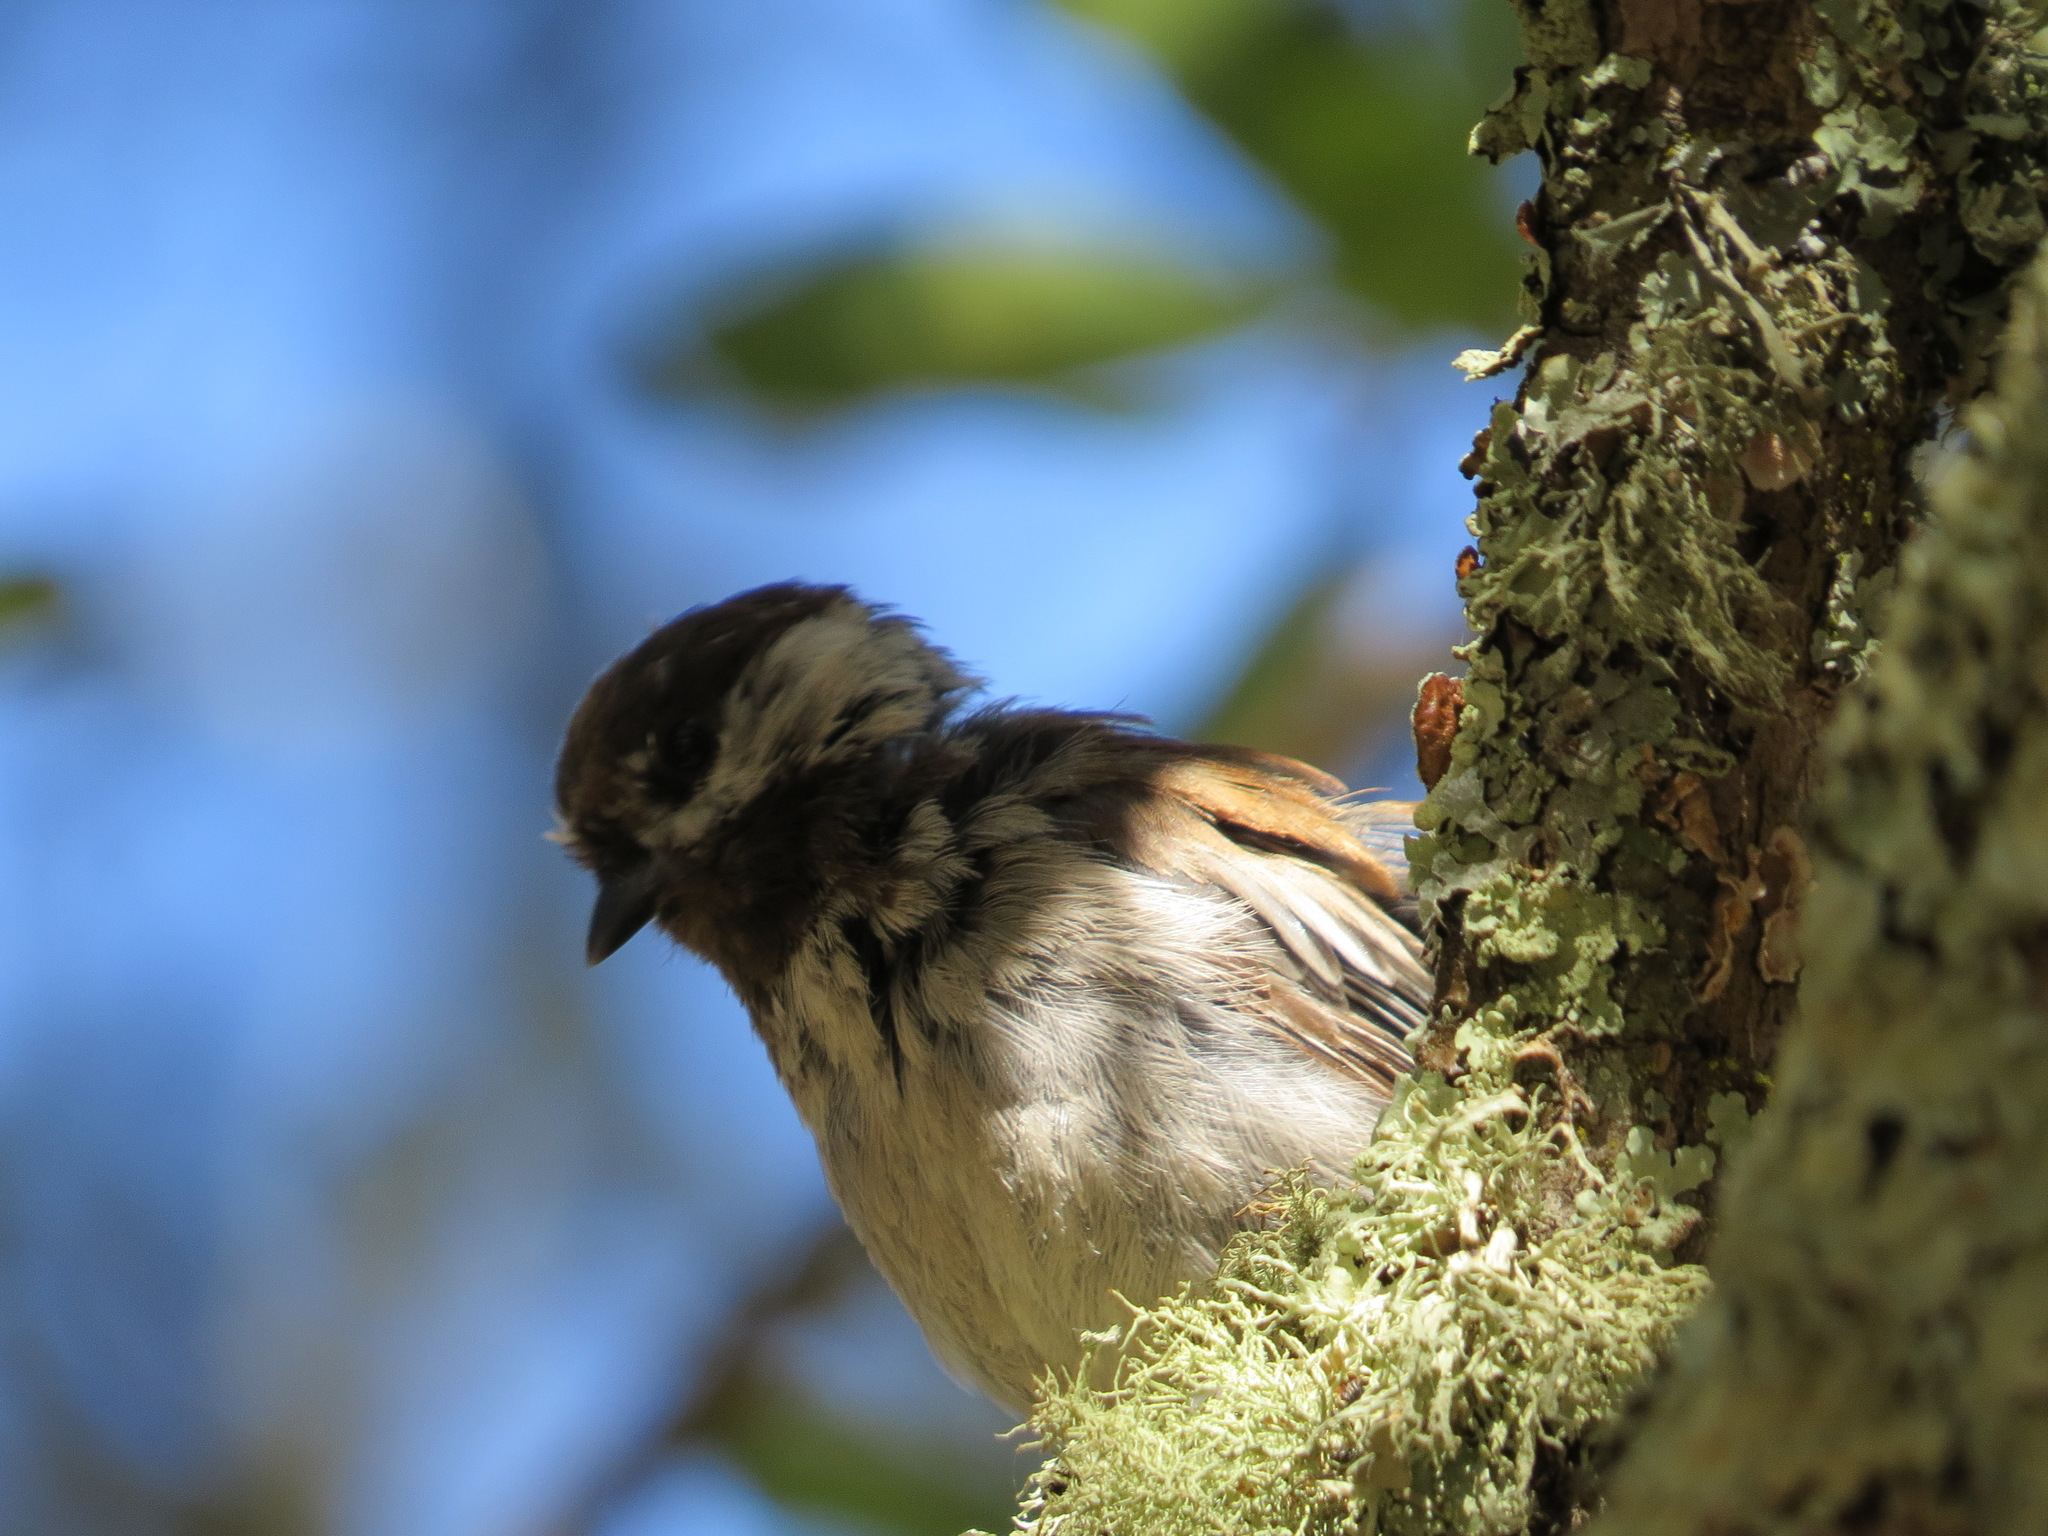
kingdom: Animalia
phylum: Chordata
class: Aves
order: Passeriformes
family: Paridae
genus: Poecile
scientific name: Poecile rufescens
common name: Chestnut-backed chickadee
